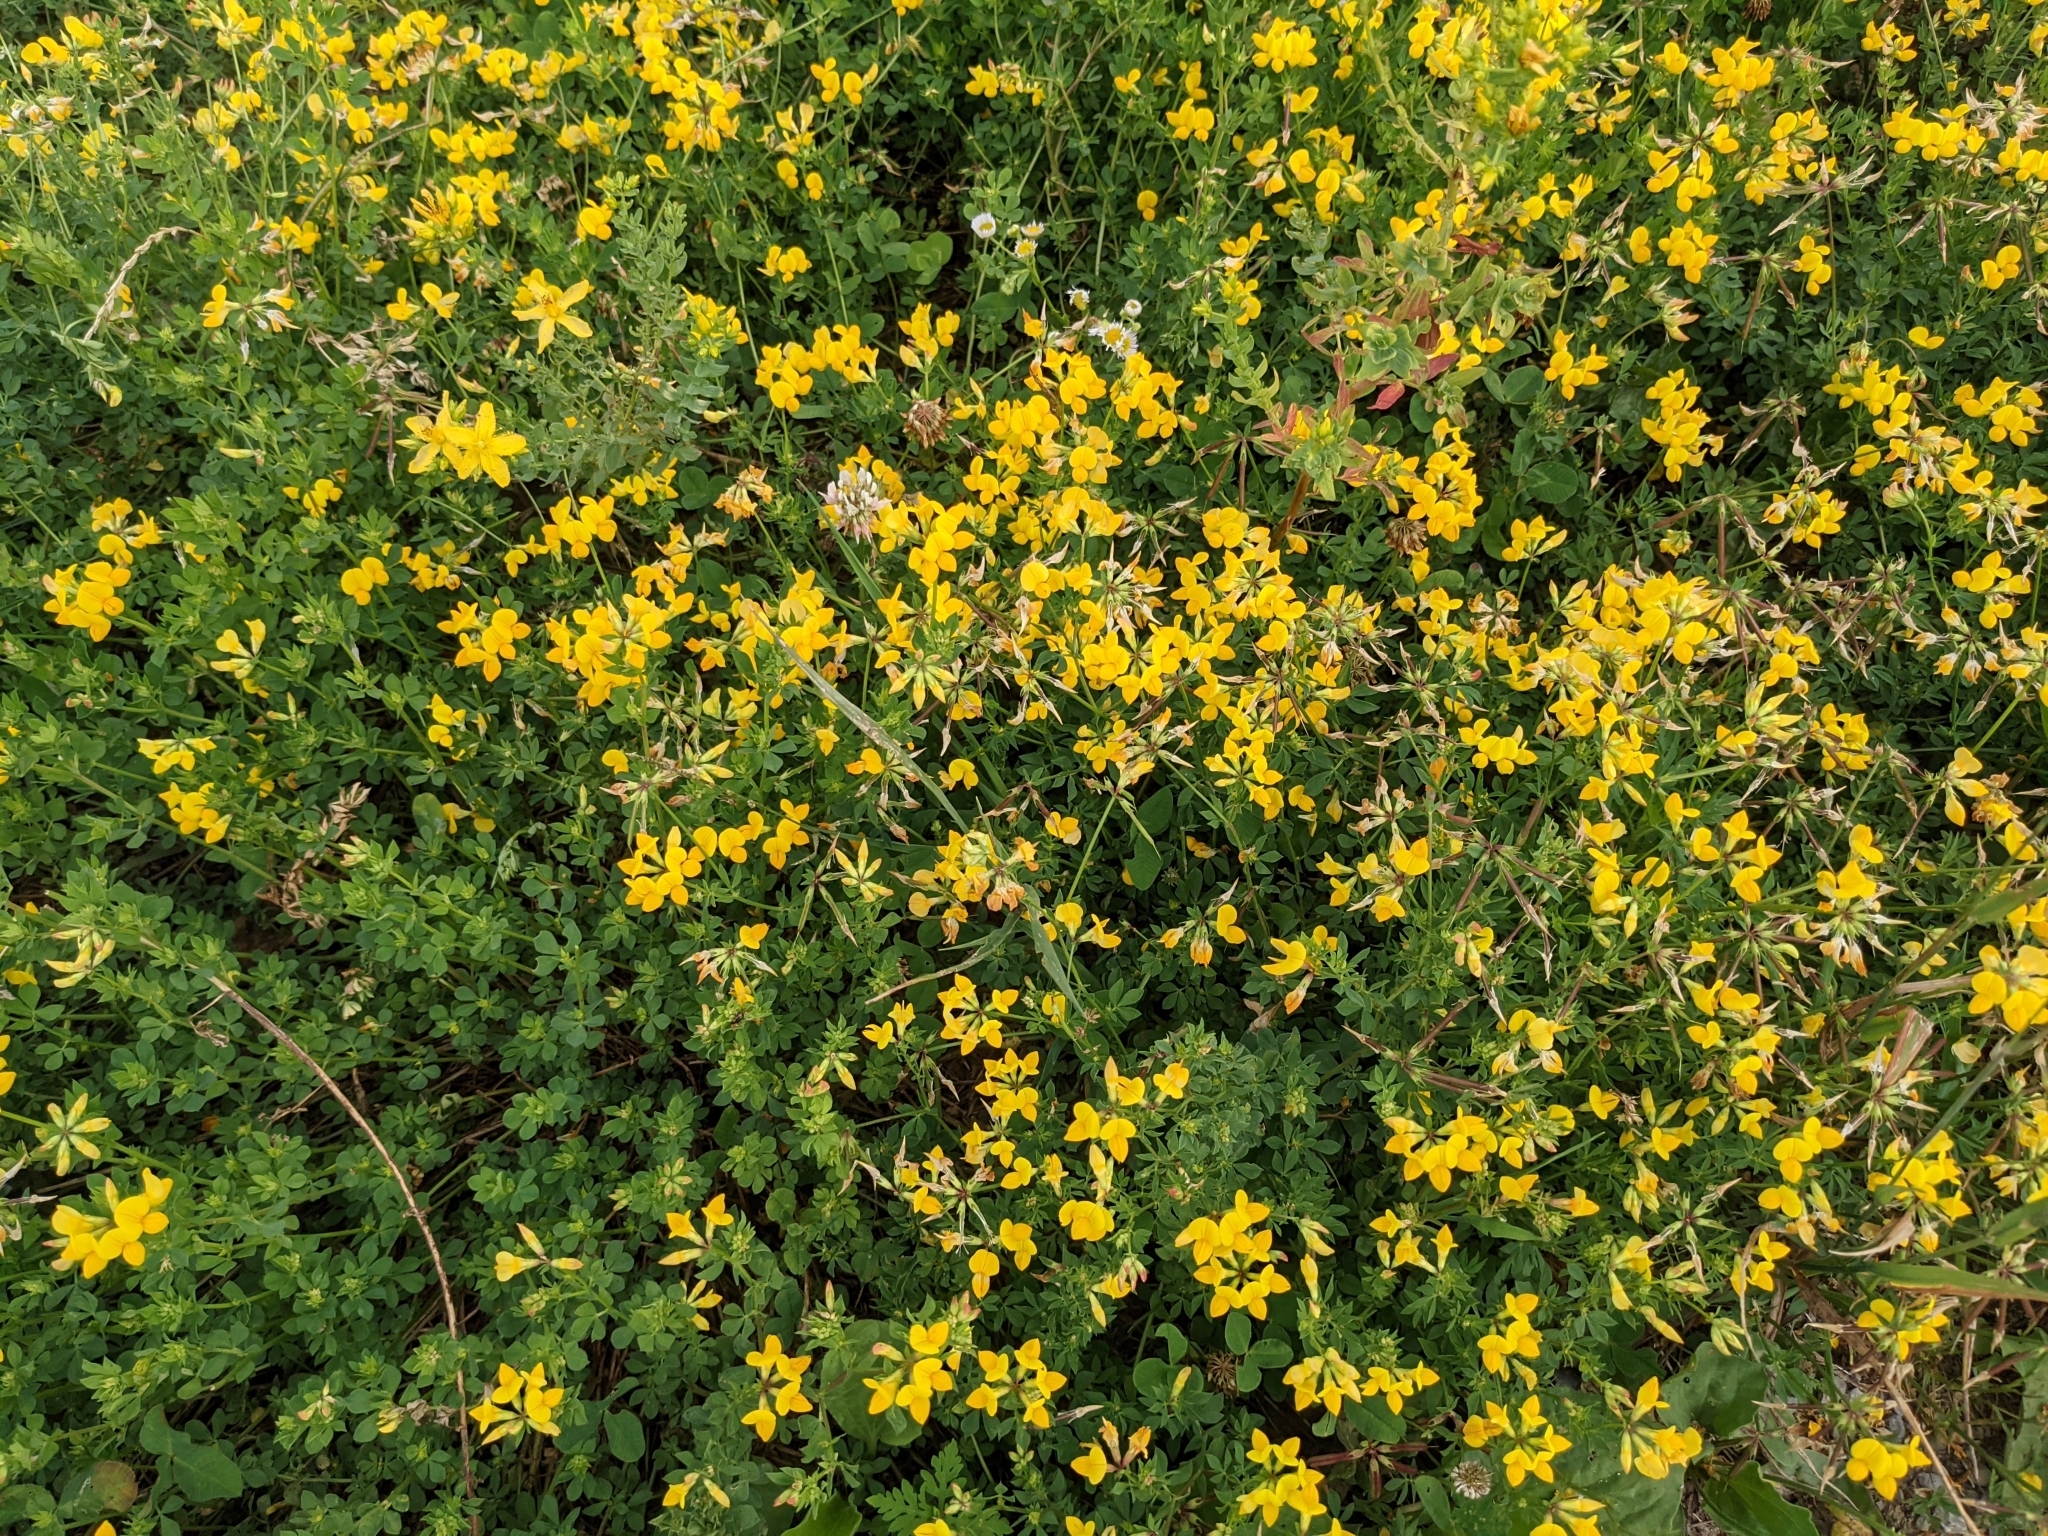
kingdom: Plantae
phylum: Tracheophyta
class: Magnoliopsida
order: Fabales
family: Fabaceae
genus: Lotus
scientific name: Lotus corniculatus
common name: Common bird's-foot-trefoil
